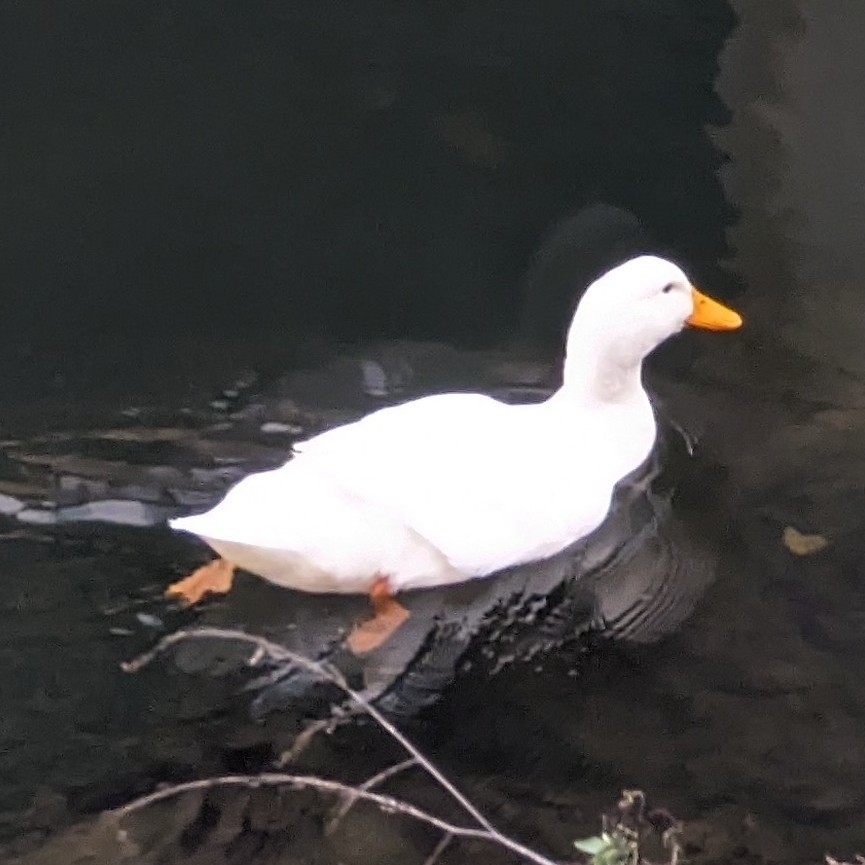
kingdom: Animalia
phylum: Chordata
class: Aves
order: Anseriformes
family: Anatidae
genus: Anas
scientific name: Anas platyrhynchos
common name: Mallard
